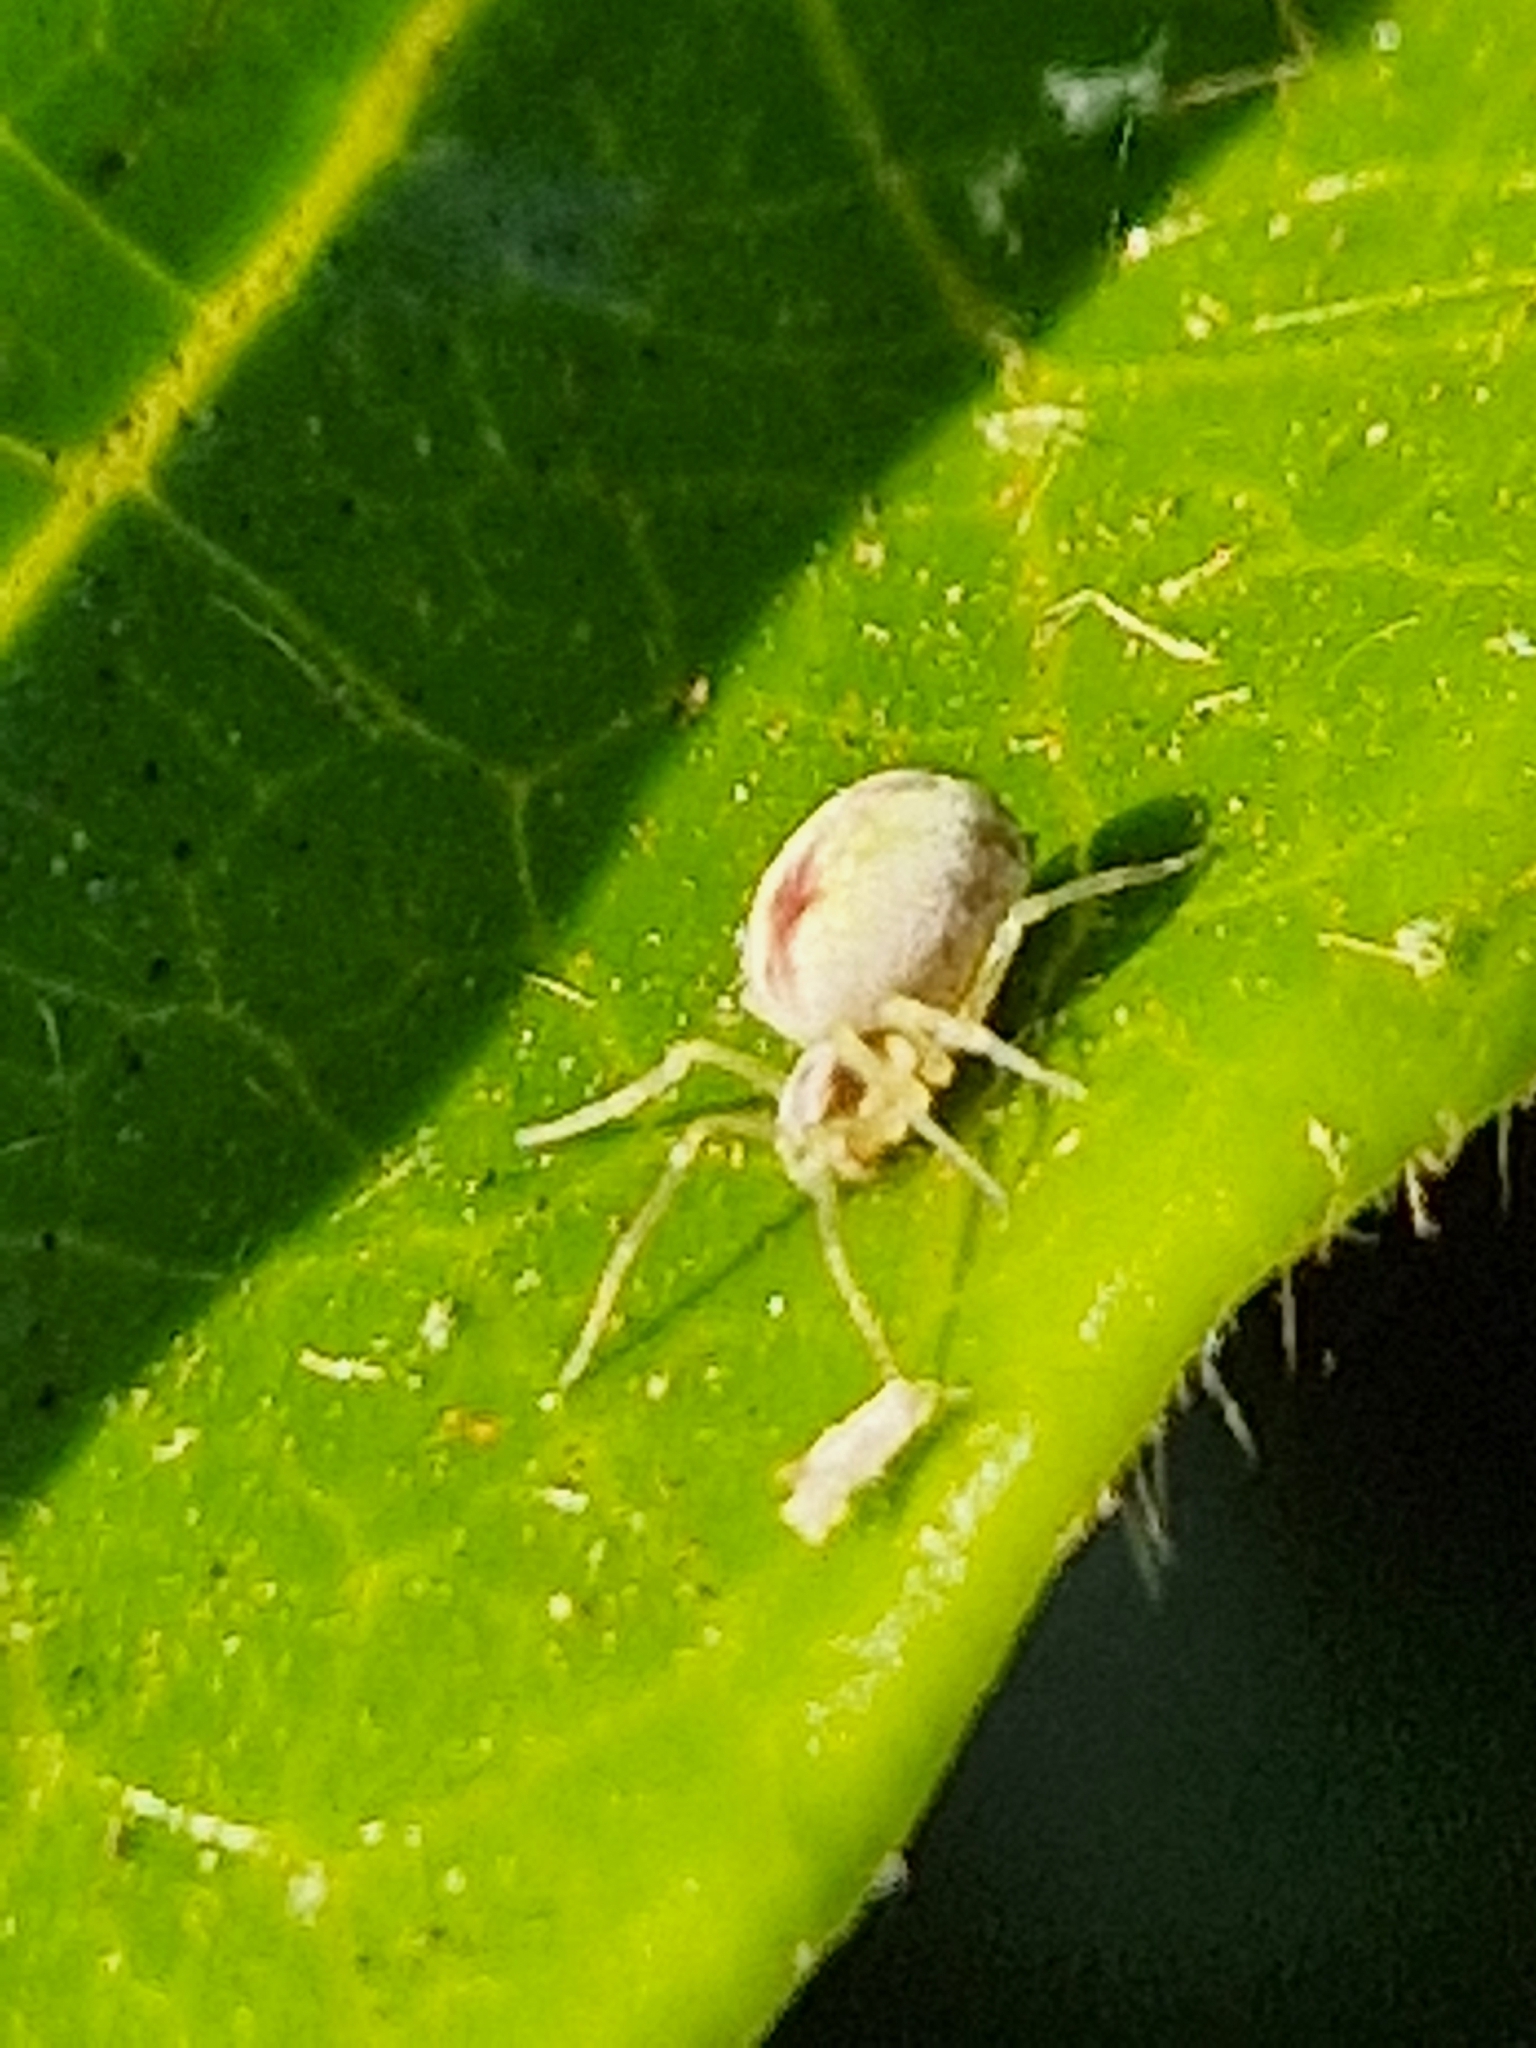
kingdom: Animalia
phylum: Arthropoda
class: Arachnida
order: Araneae
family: Dictynidae
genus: Nigma
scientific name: Nigma puella
